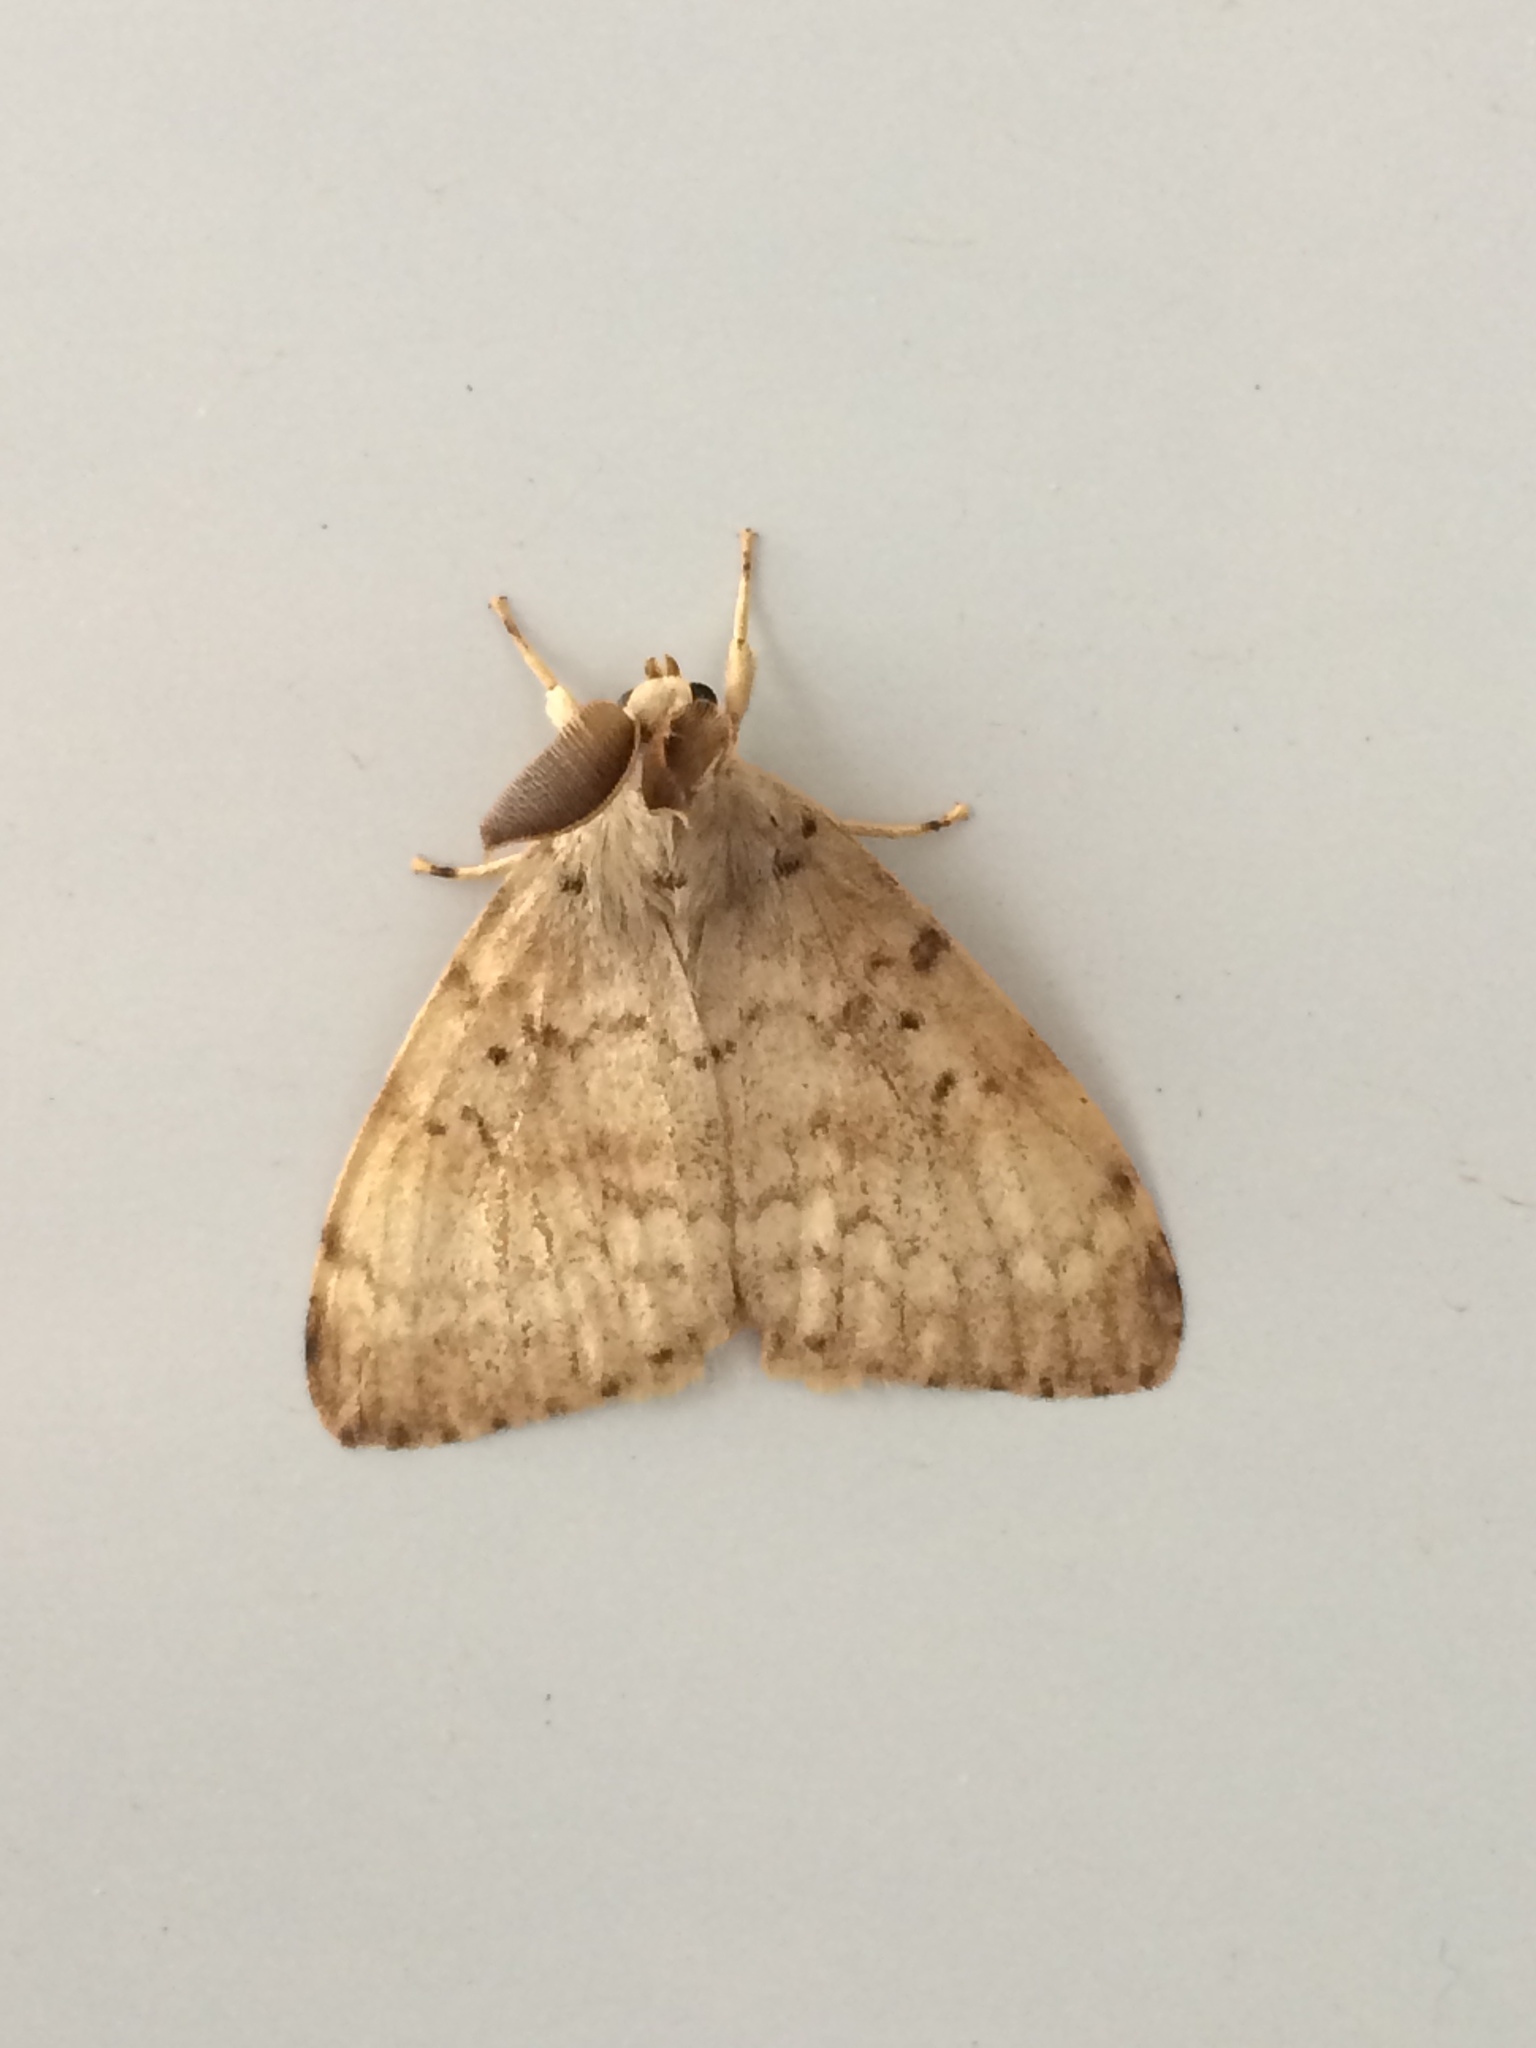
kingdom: Animalia
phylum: Arthropoda
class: Insecta
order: Lepidoptera
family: Erebidae
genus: Lymantria
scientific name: Lymantria dispar
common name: Gypsy moth
